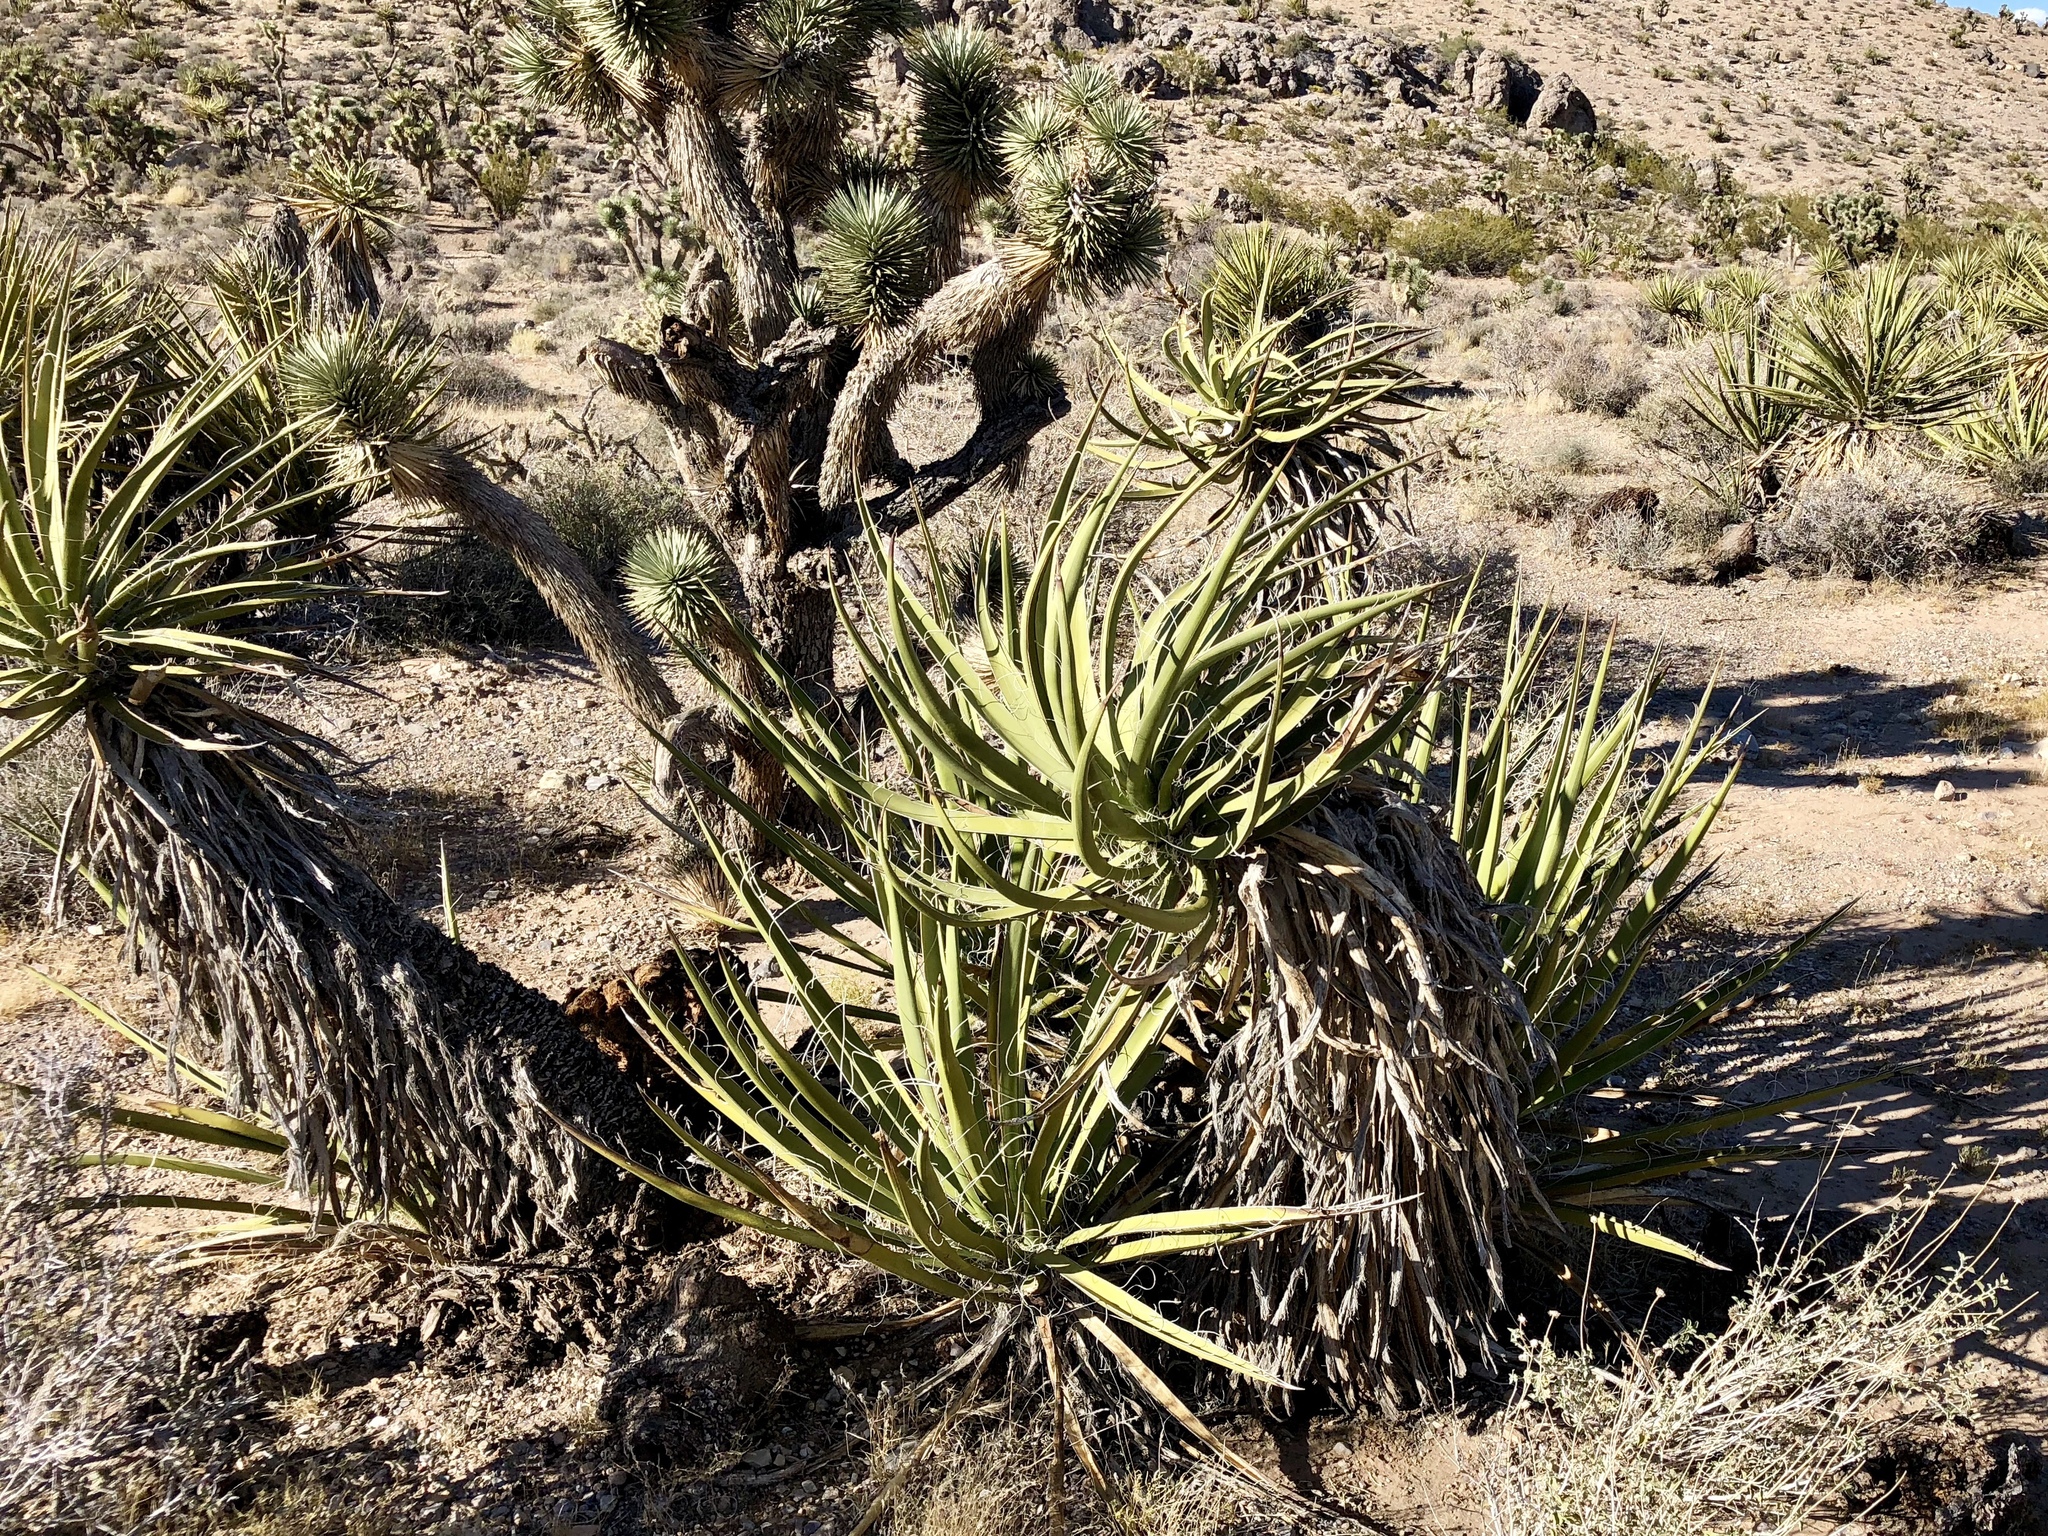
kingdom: Plantae
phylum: Tracheophyta
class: Liliopsida
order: Asparagales
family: Asparagaceae
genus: Yucca
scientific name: Yucca schidigera
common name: Mojave yucca
